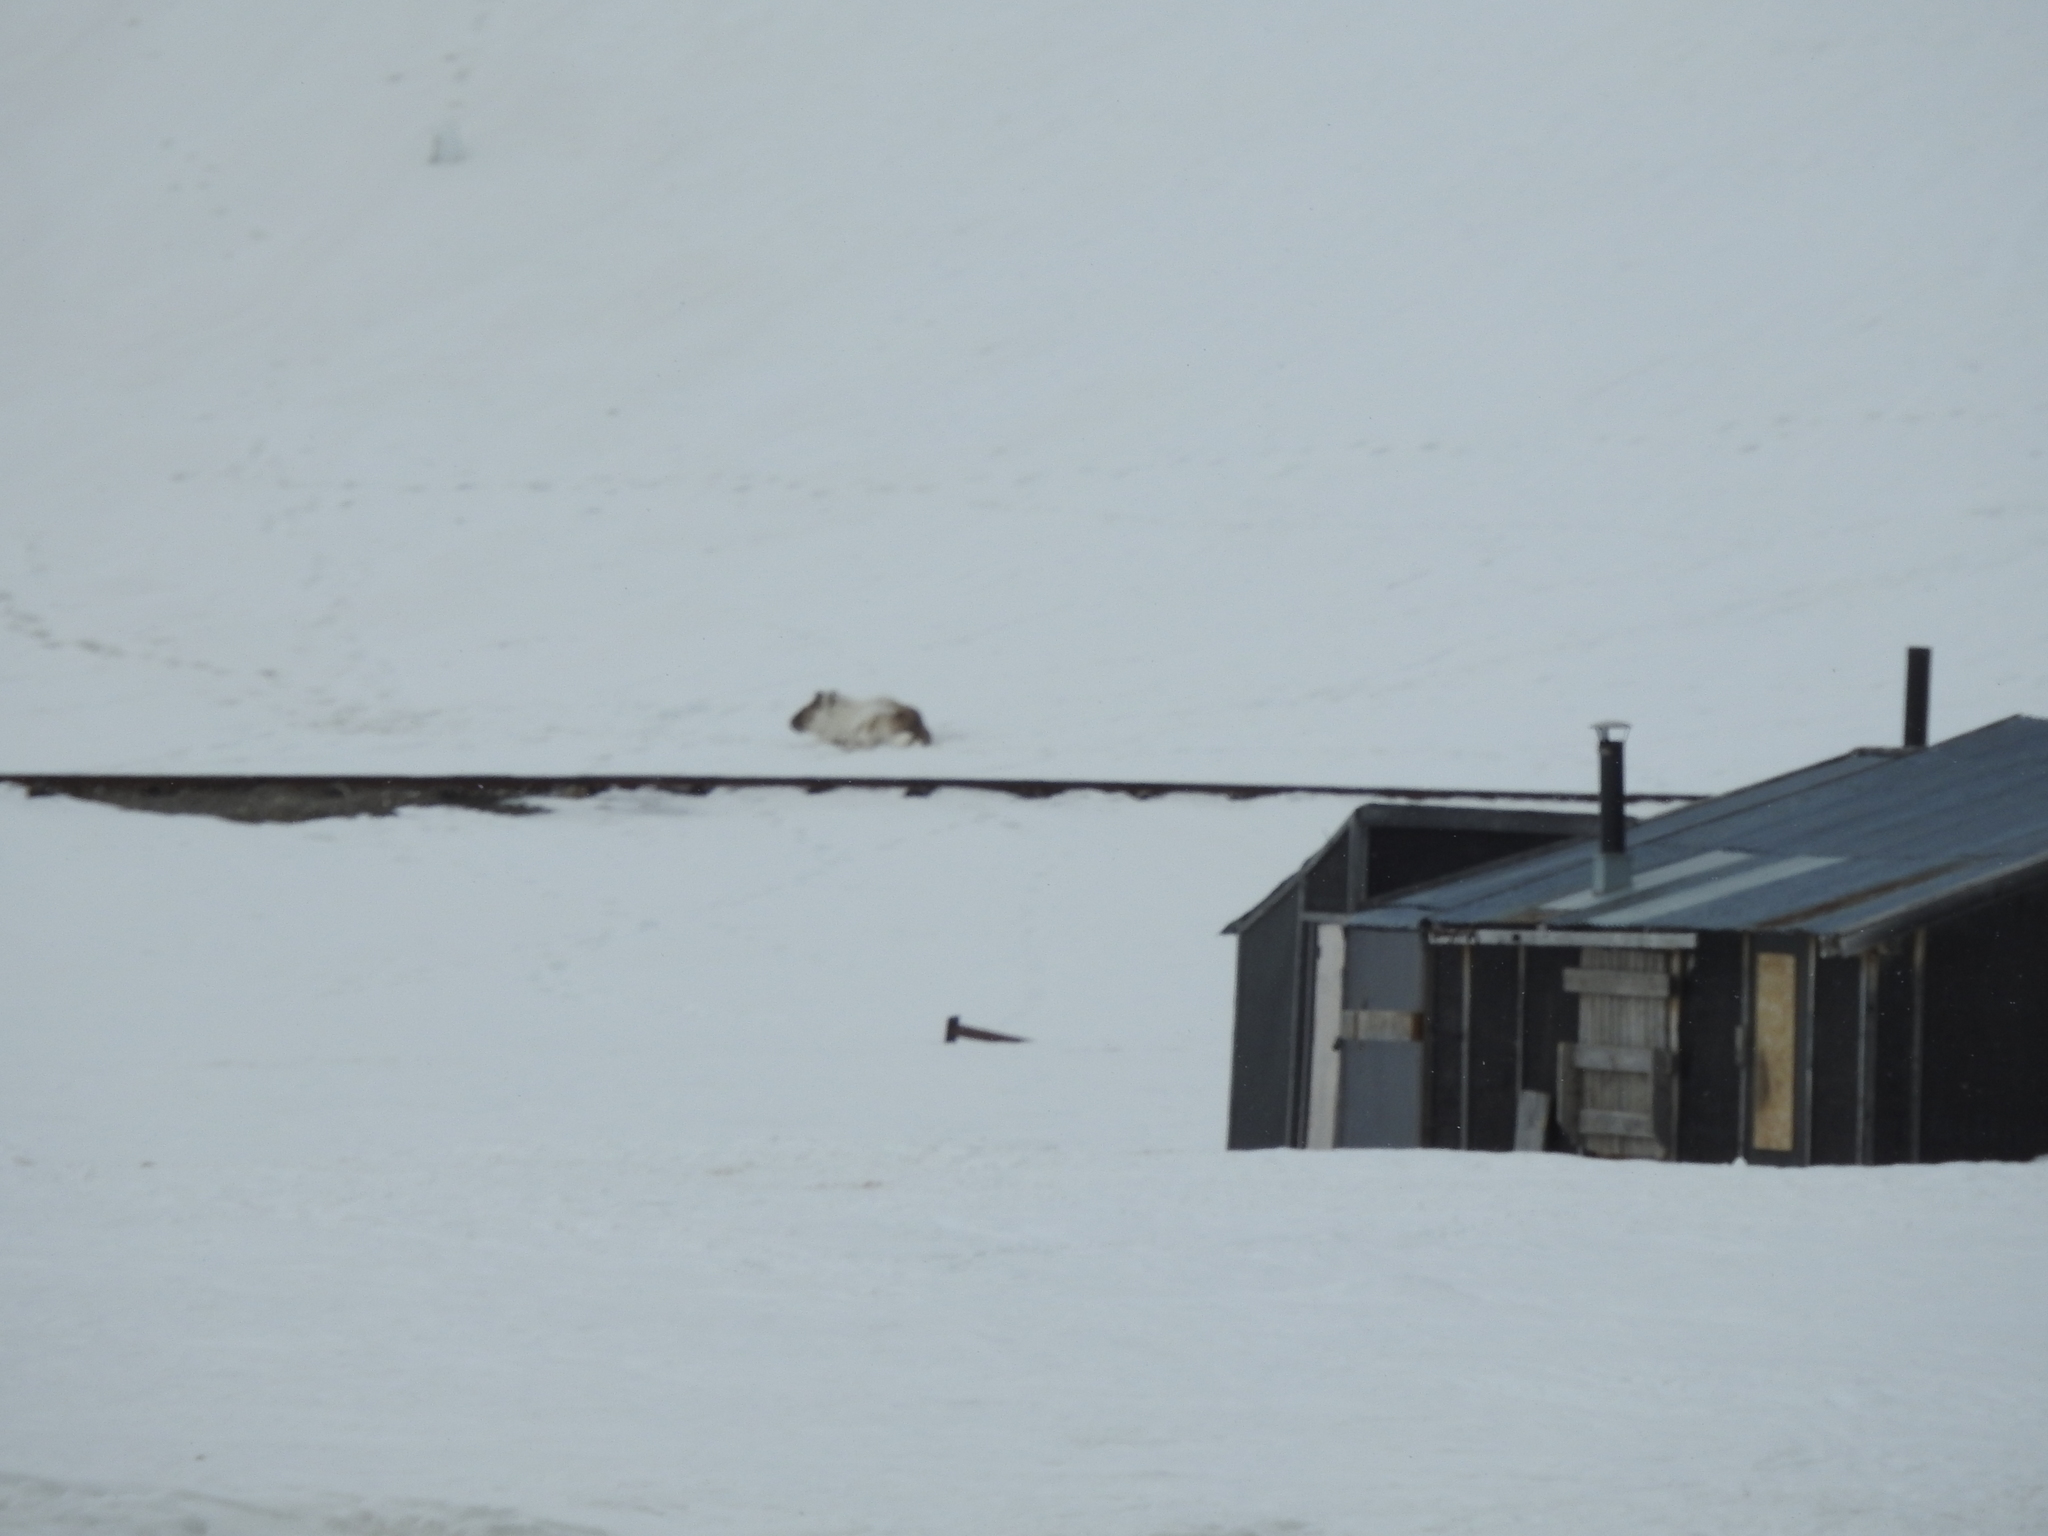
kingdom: Animalia
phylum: Chordata
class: Mammalia
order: Artiodactyla
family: Cervidae
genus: Rangifer
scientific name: Rangifer tarandus
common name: Reindeer
